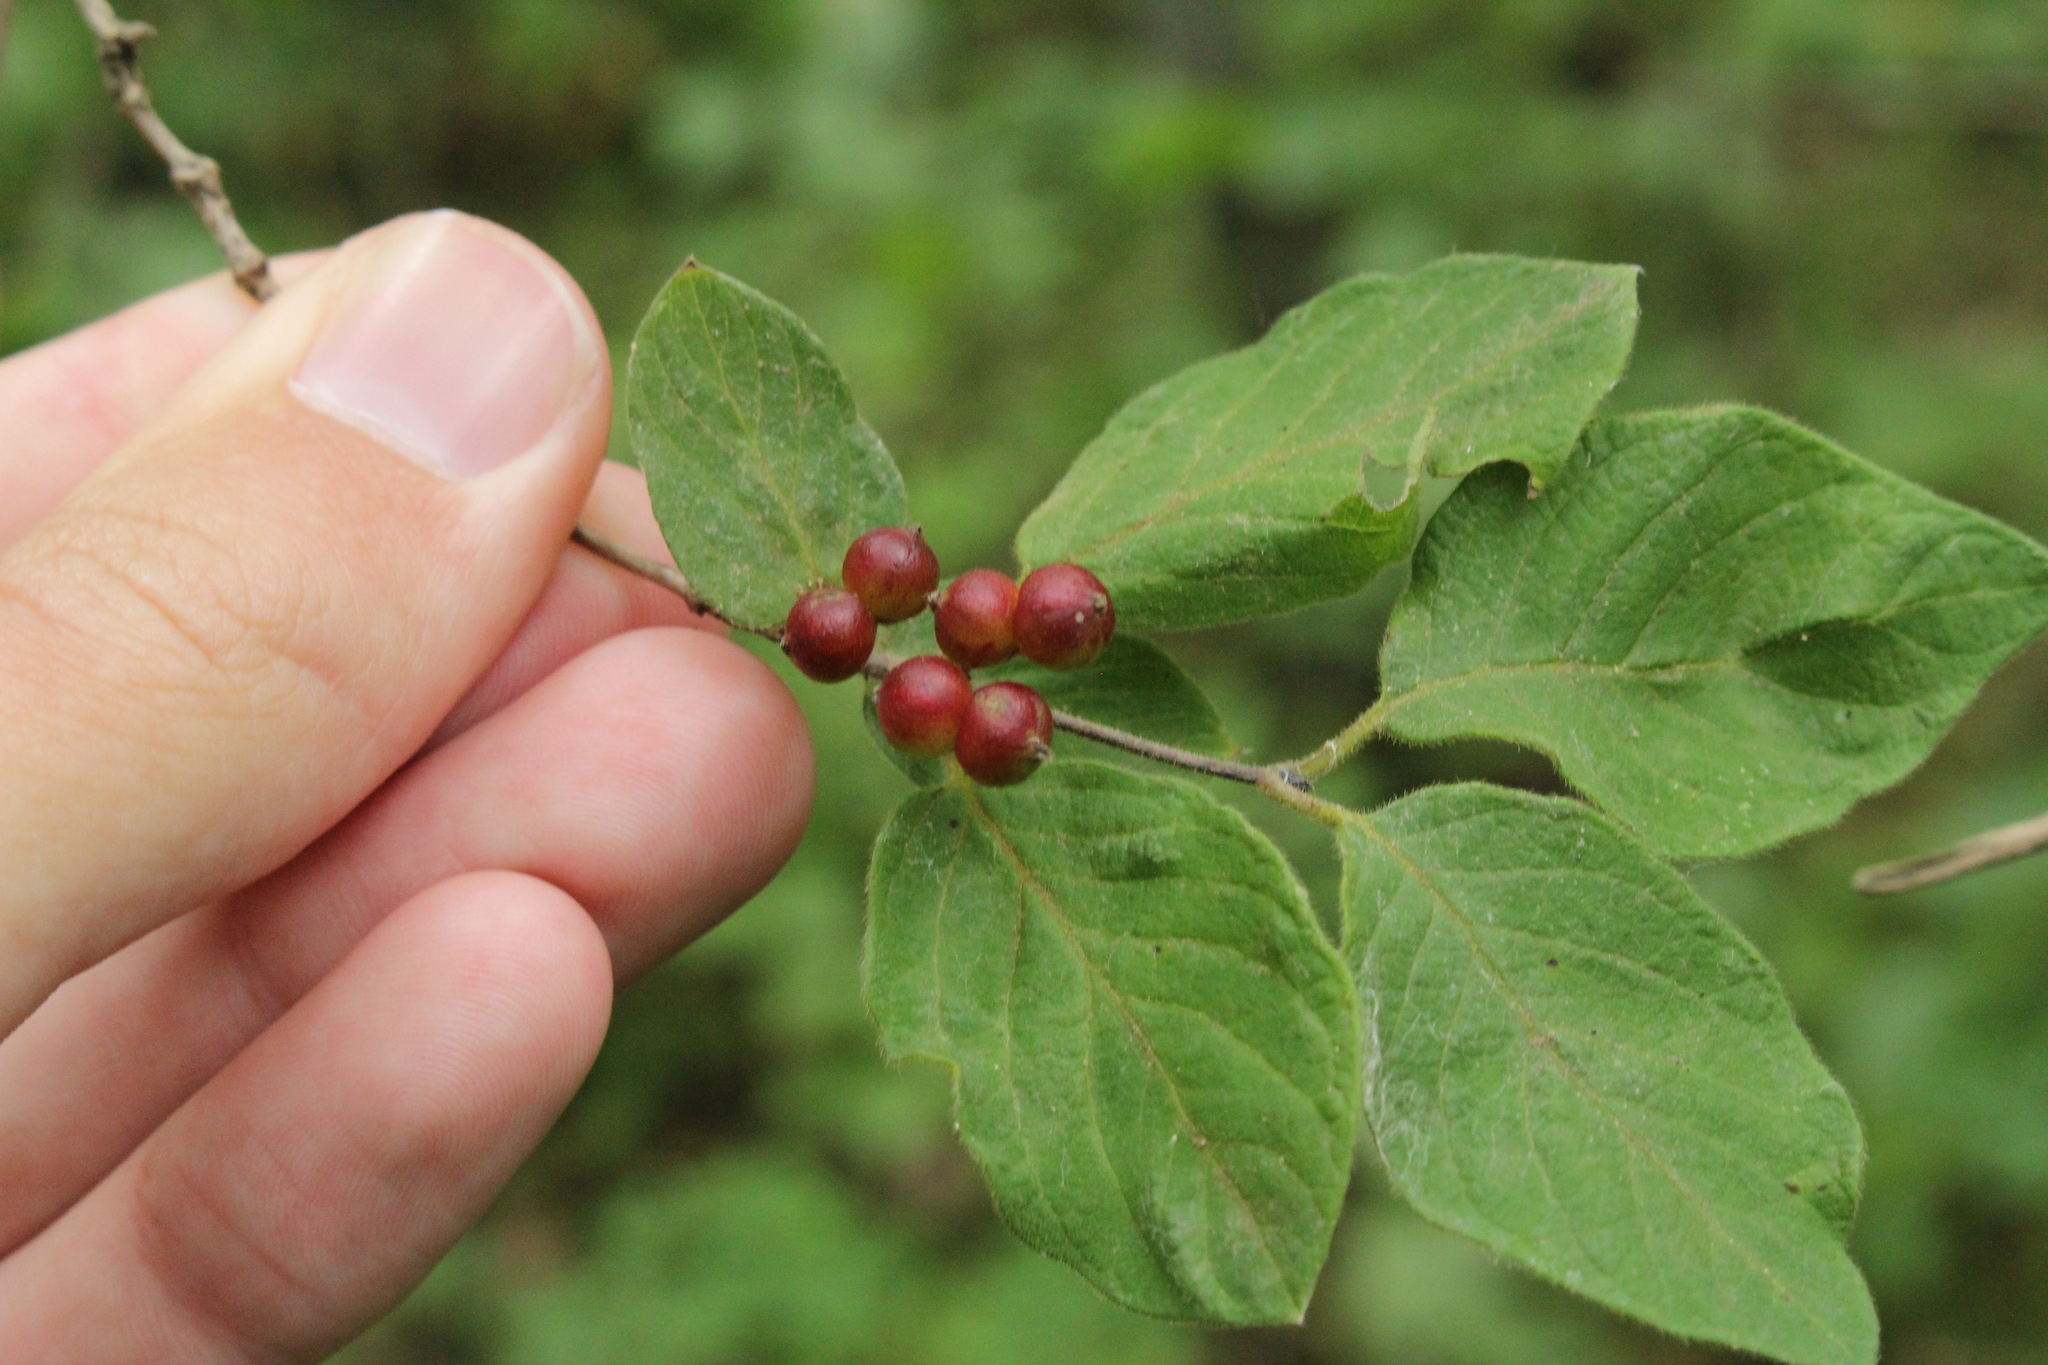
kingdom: Plantae
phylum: Tracheophyta
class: Magnoliopsida
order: Dipsacales
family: Caprifoliaceae
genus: Lonicera
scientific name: Lonicera xylosteum
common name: Fly honeysuckle
